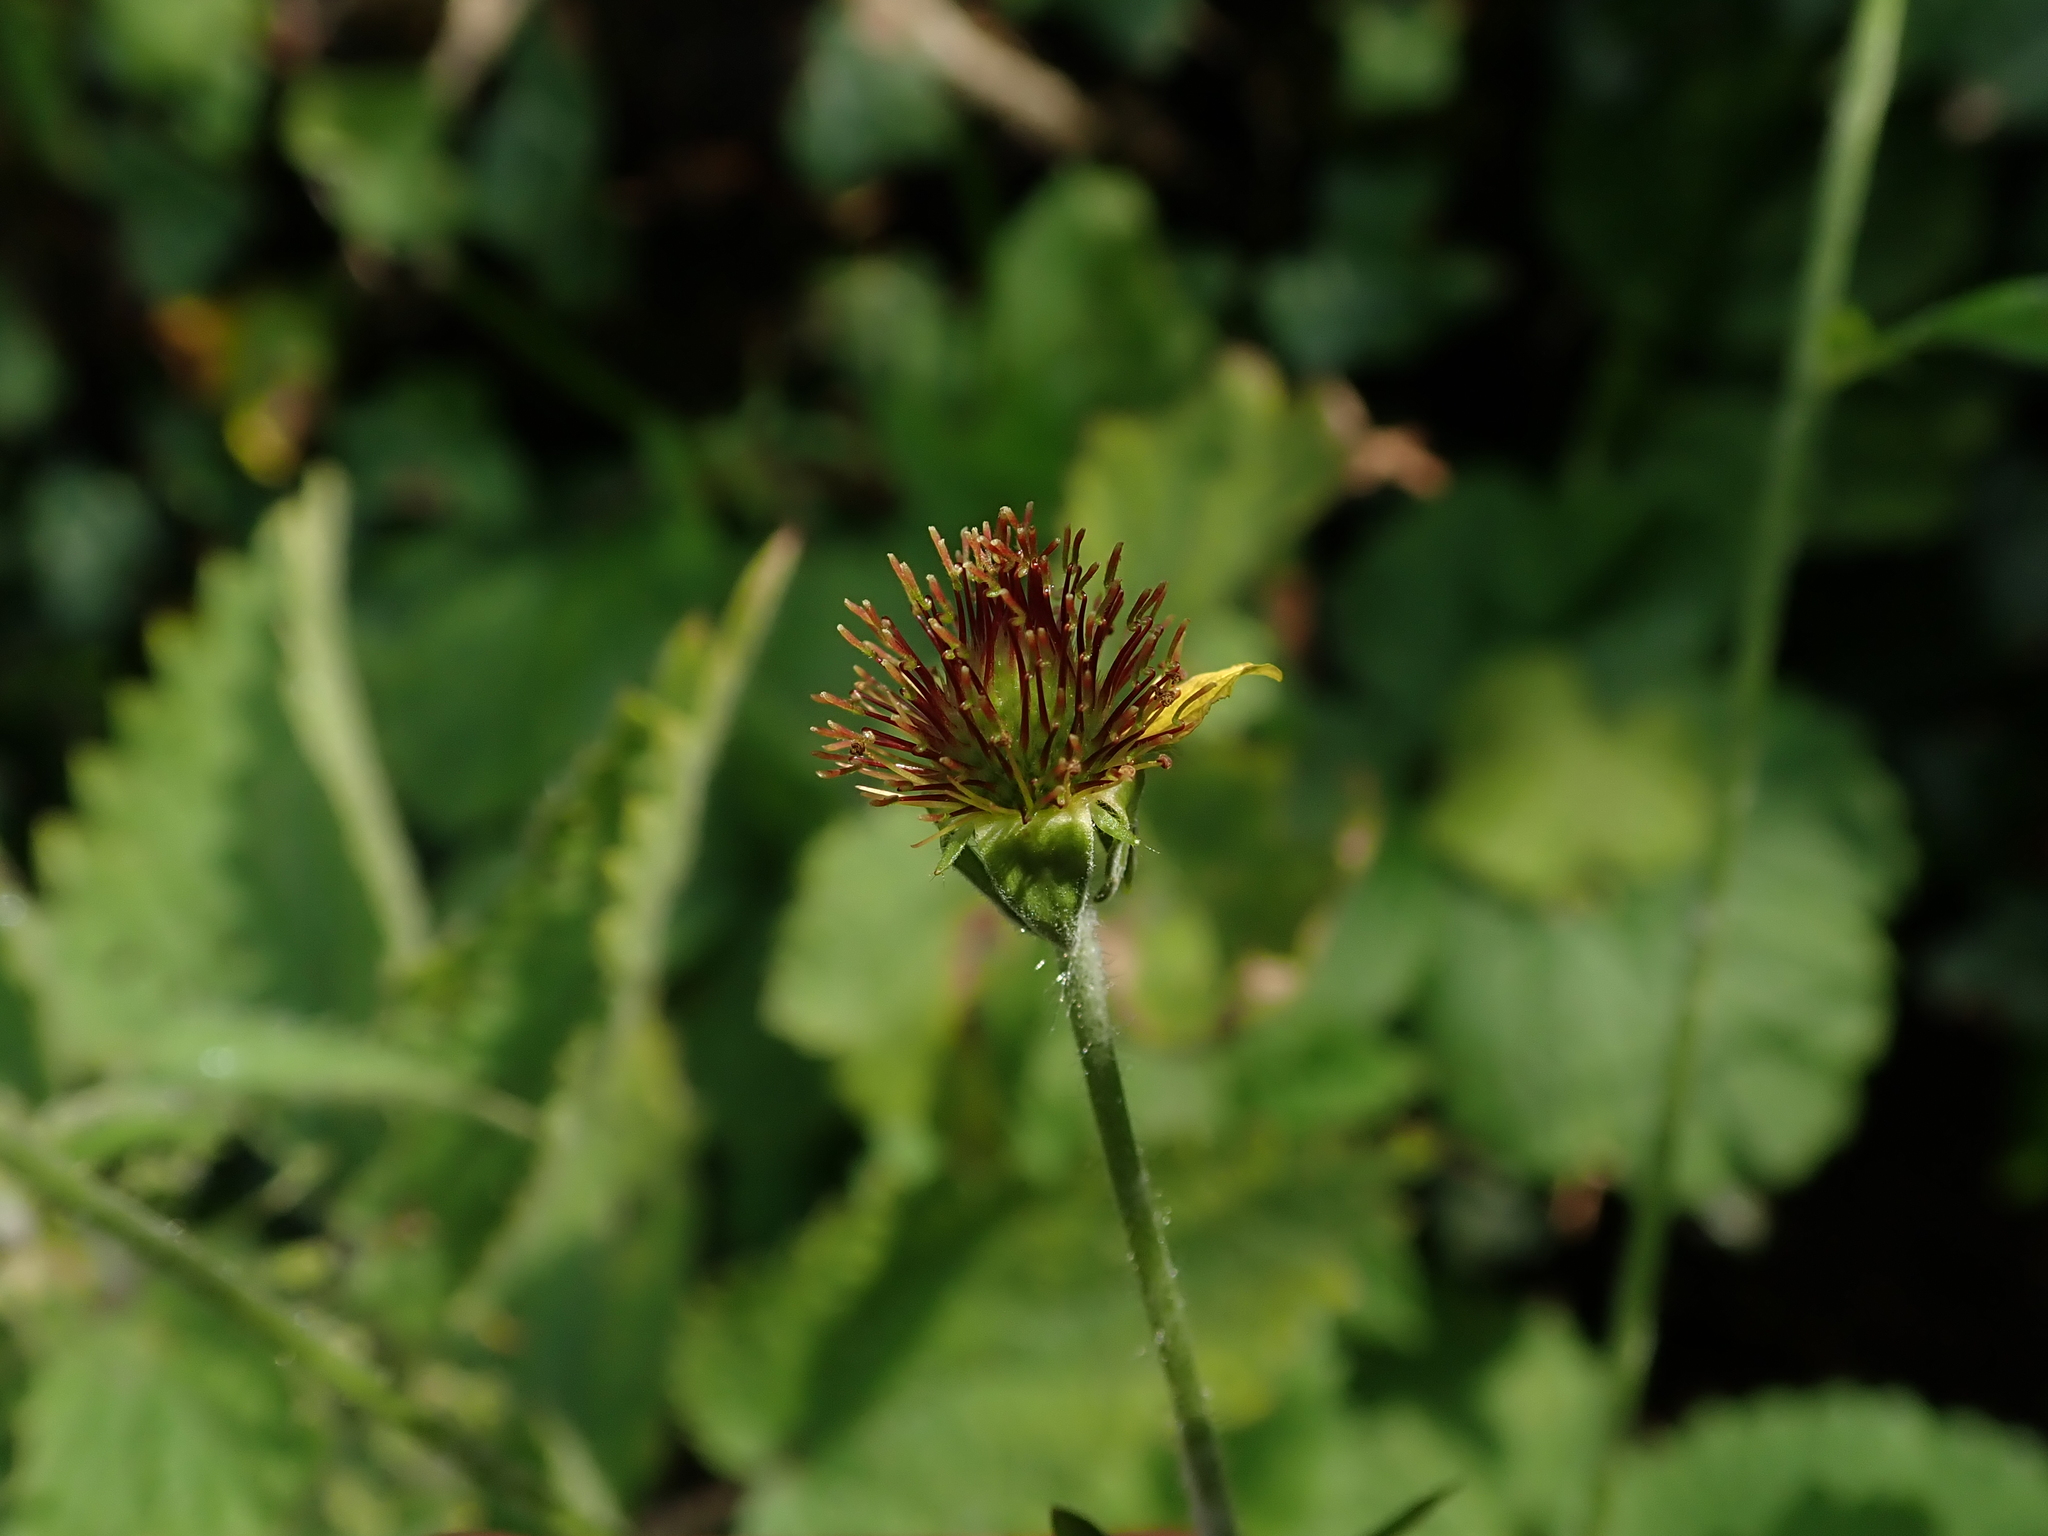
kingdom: Plantae
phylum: Tracheophyta
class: Magnoliopsida
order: Rosales
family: Rosaceae
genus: Geum
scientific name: Geum urbanum
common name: Wood avens
